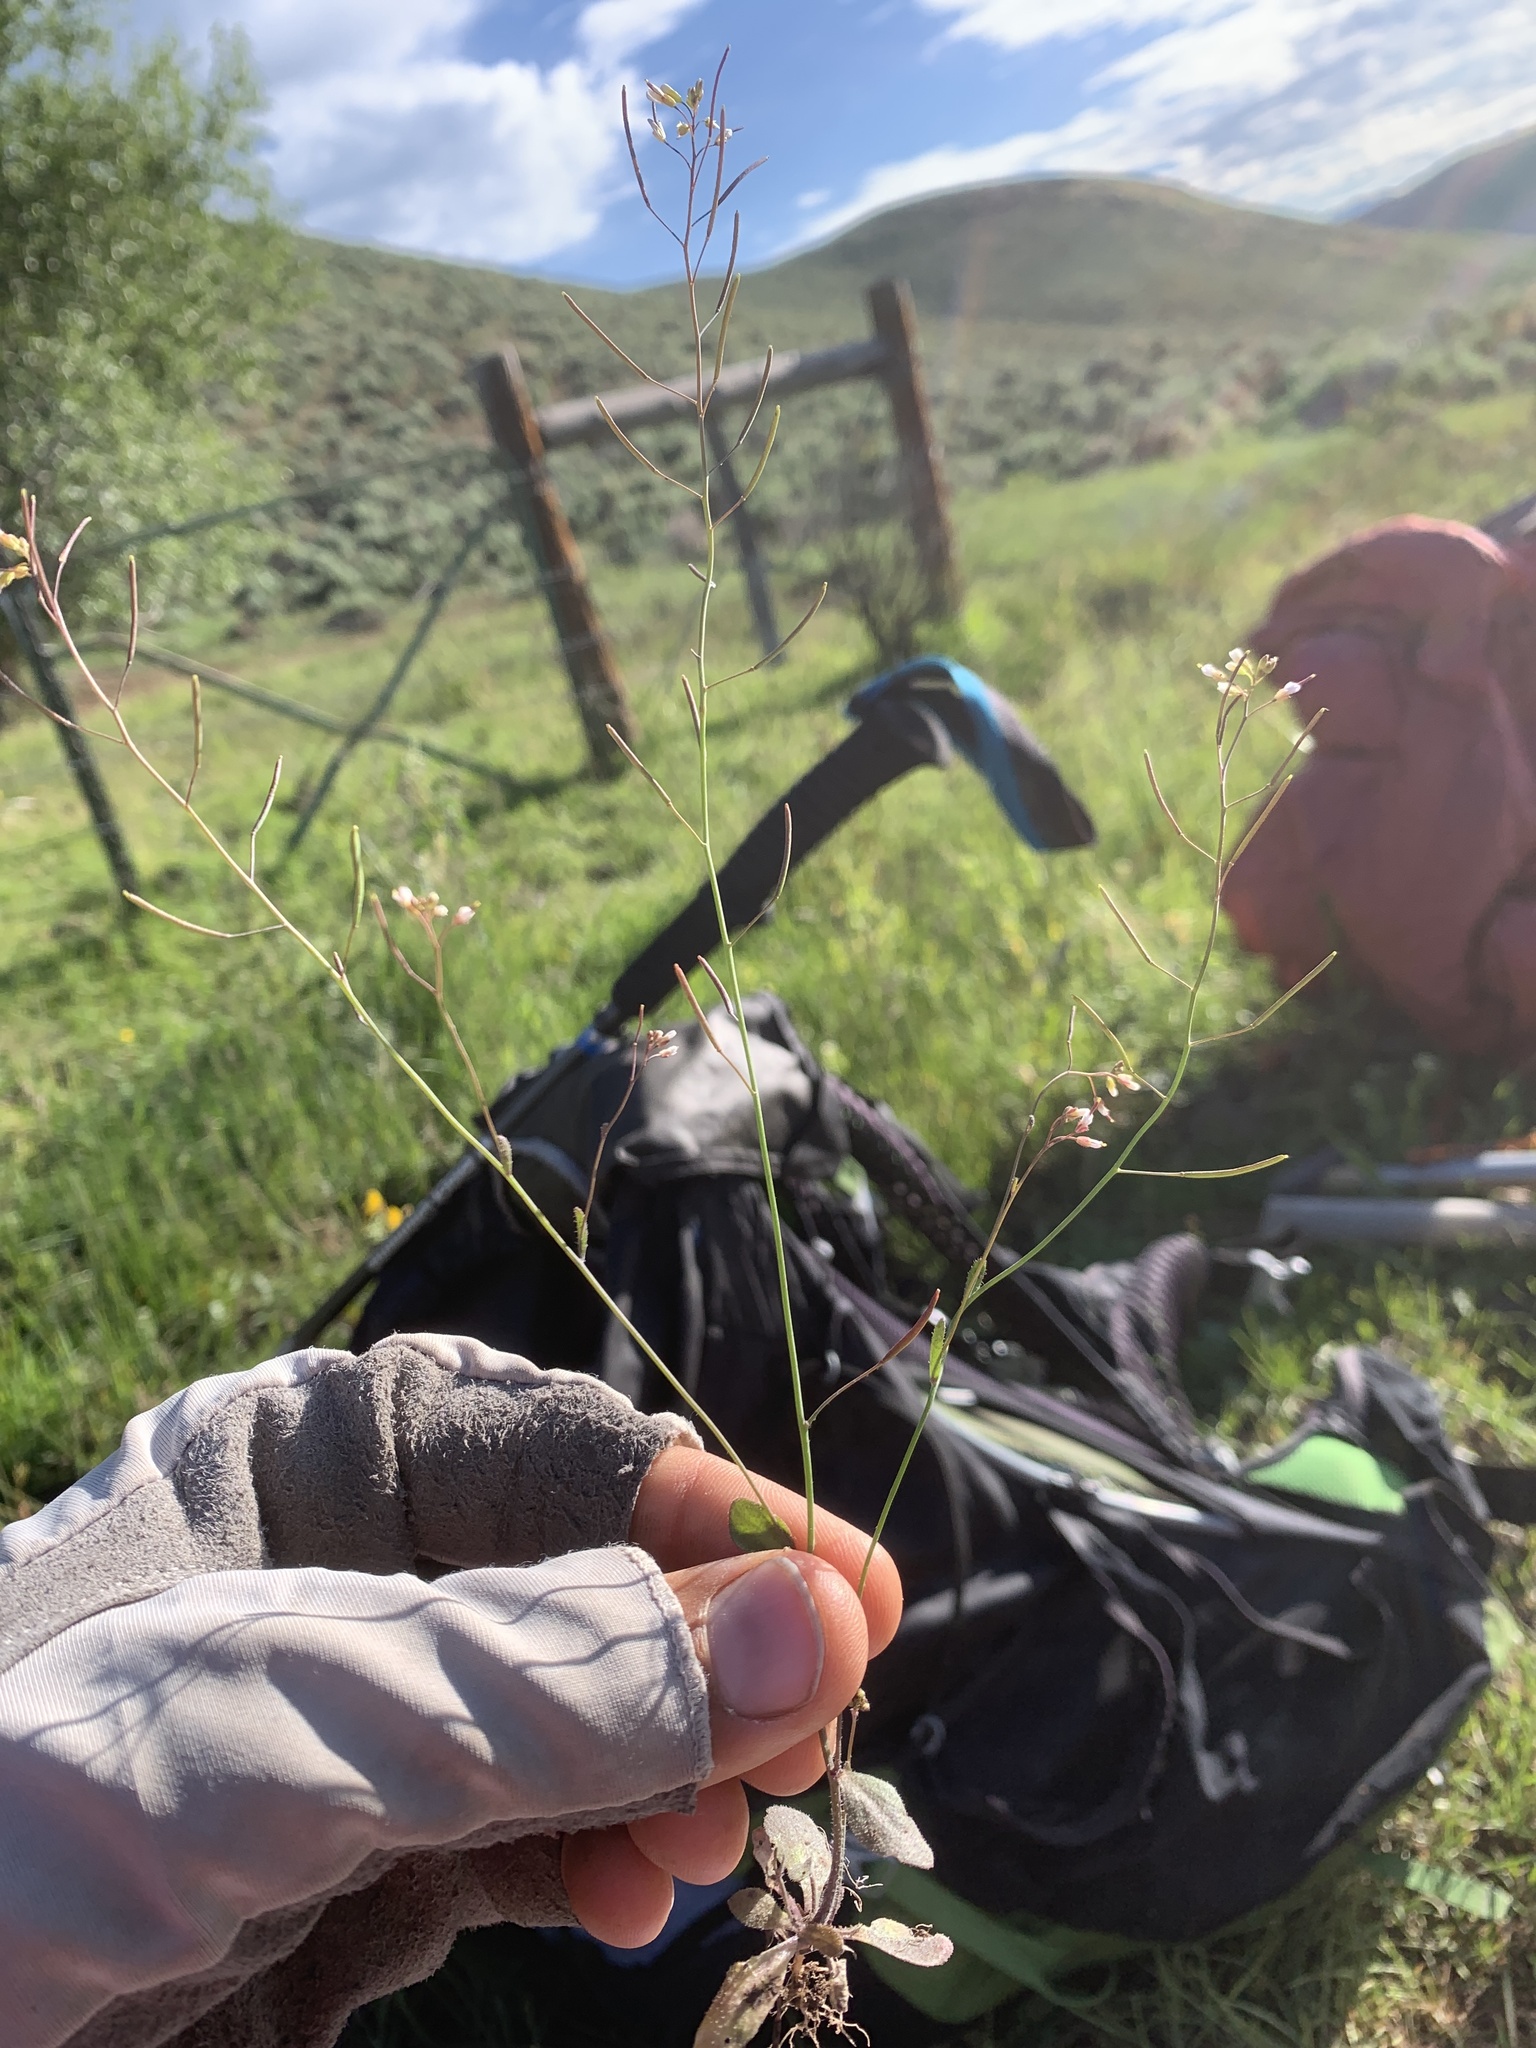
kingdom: Plantae
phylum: Tracheophyta
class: Magnoliopsida
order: Brassicales
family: Brassicaceae
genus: Arabidopsis
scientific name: Arabidopsis thaliana
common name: Thale cress
